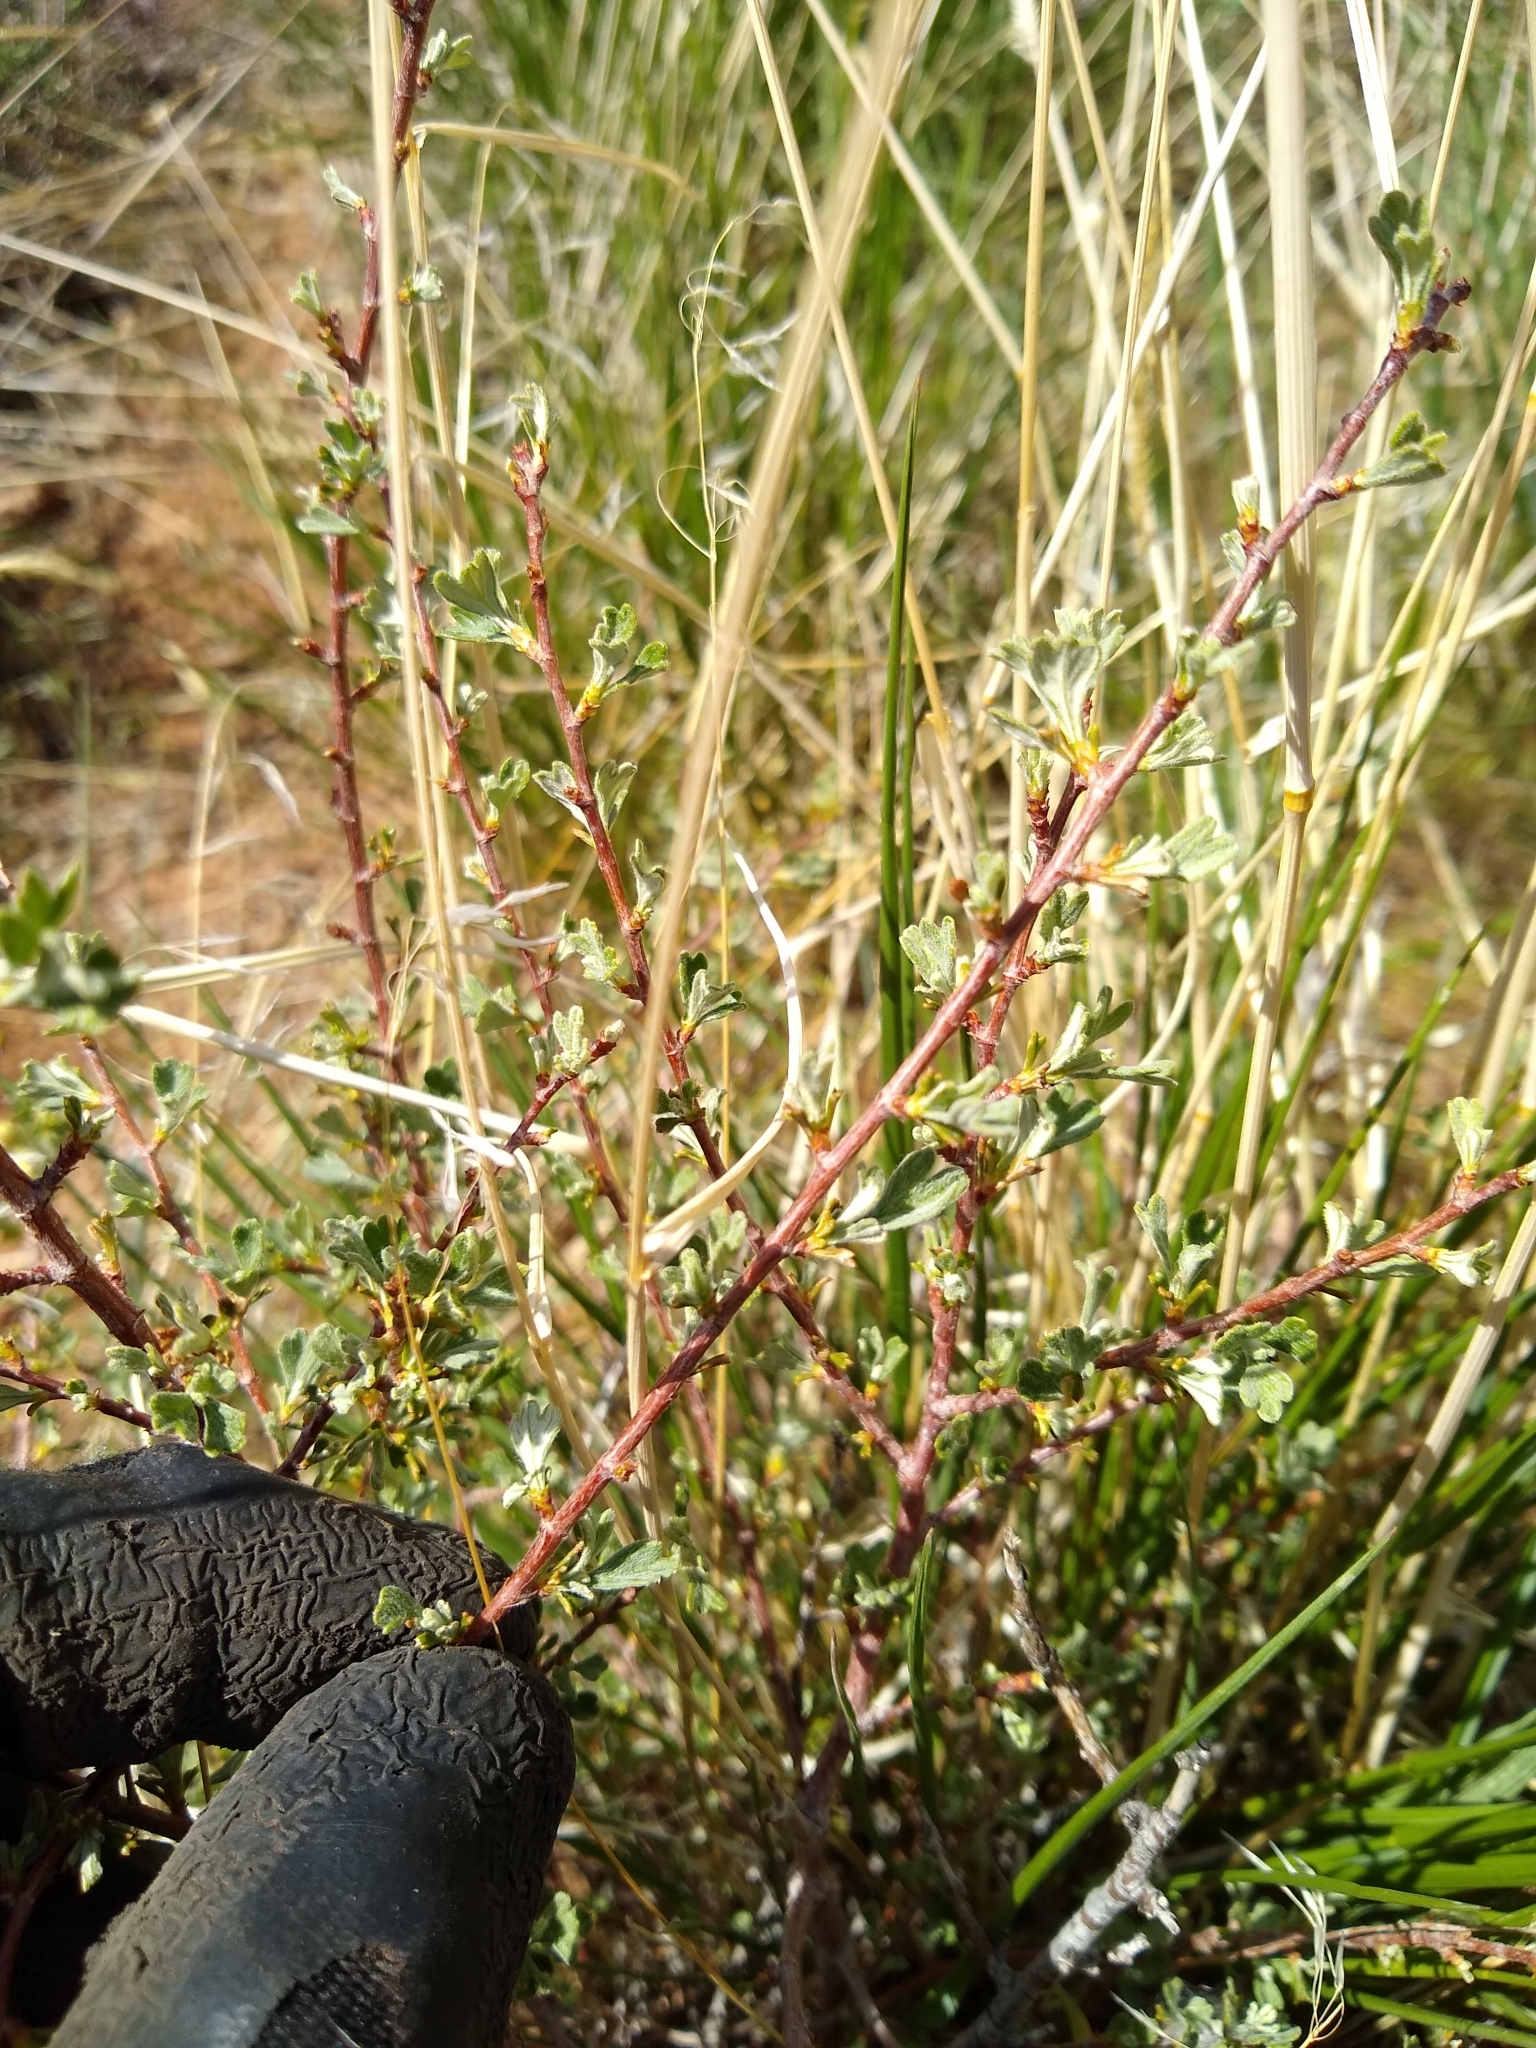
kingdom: Plantae
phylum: Tracheophyta
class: Magnoliopsida
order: Rosales
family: Rosaceae
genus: Purshia
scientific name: Purshia tridentata
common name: Antelope bitterbrush
